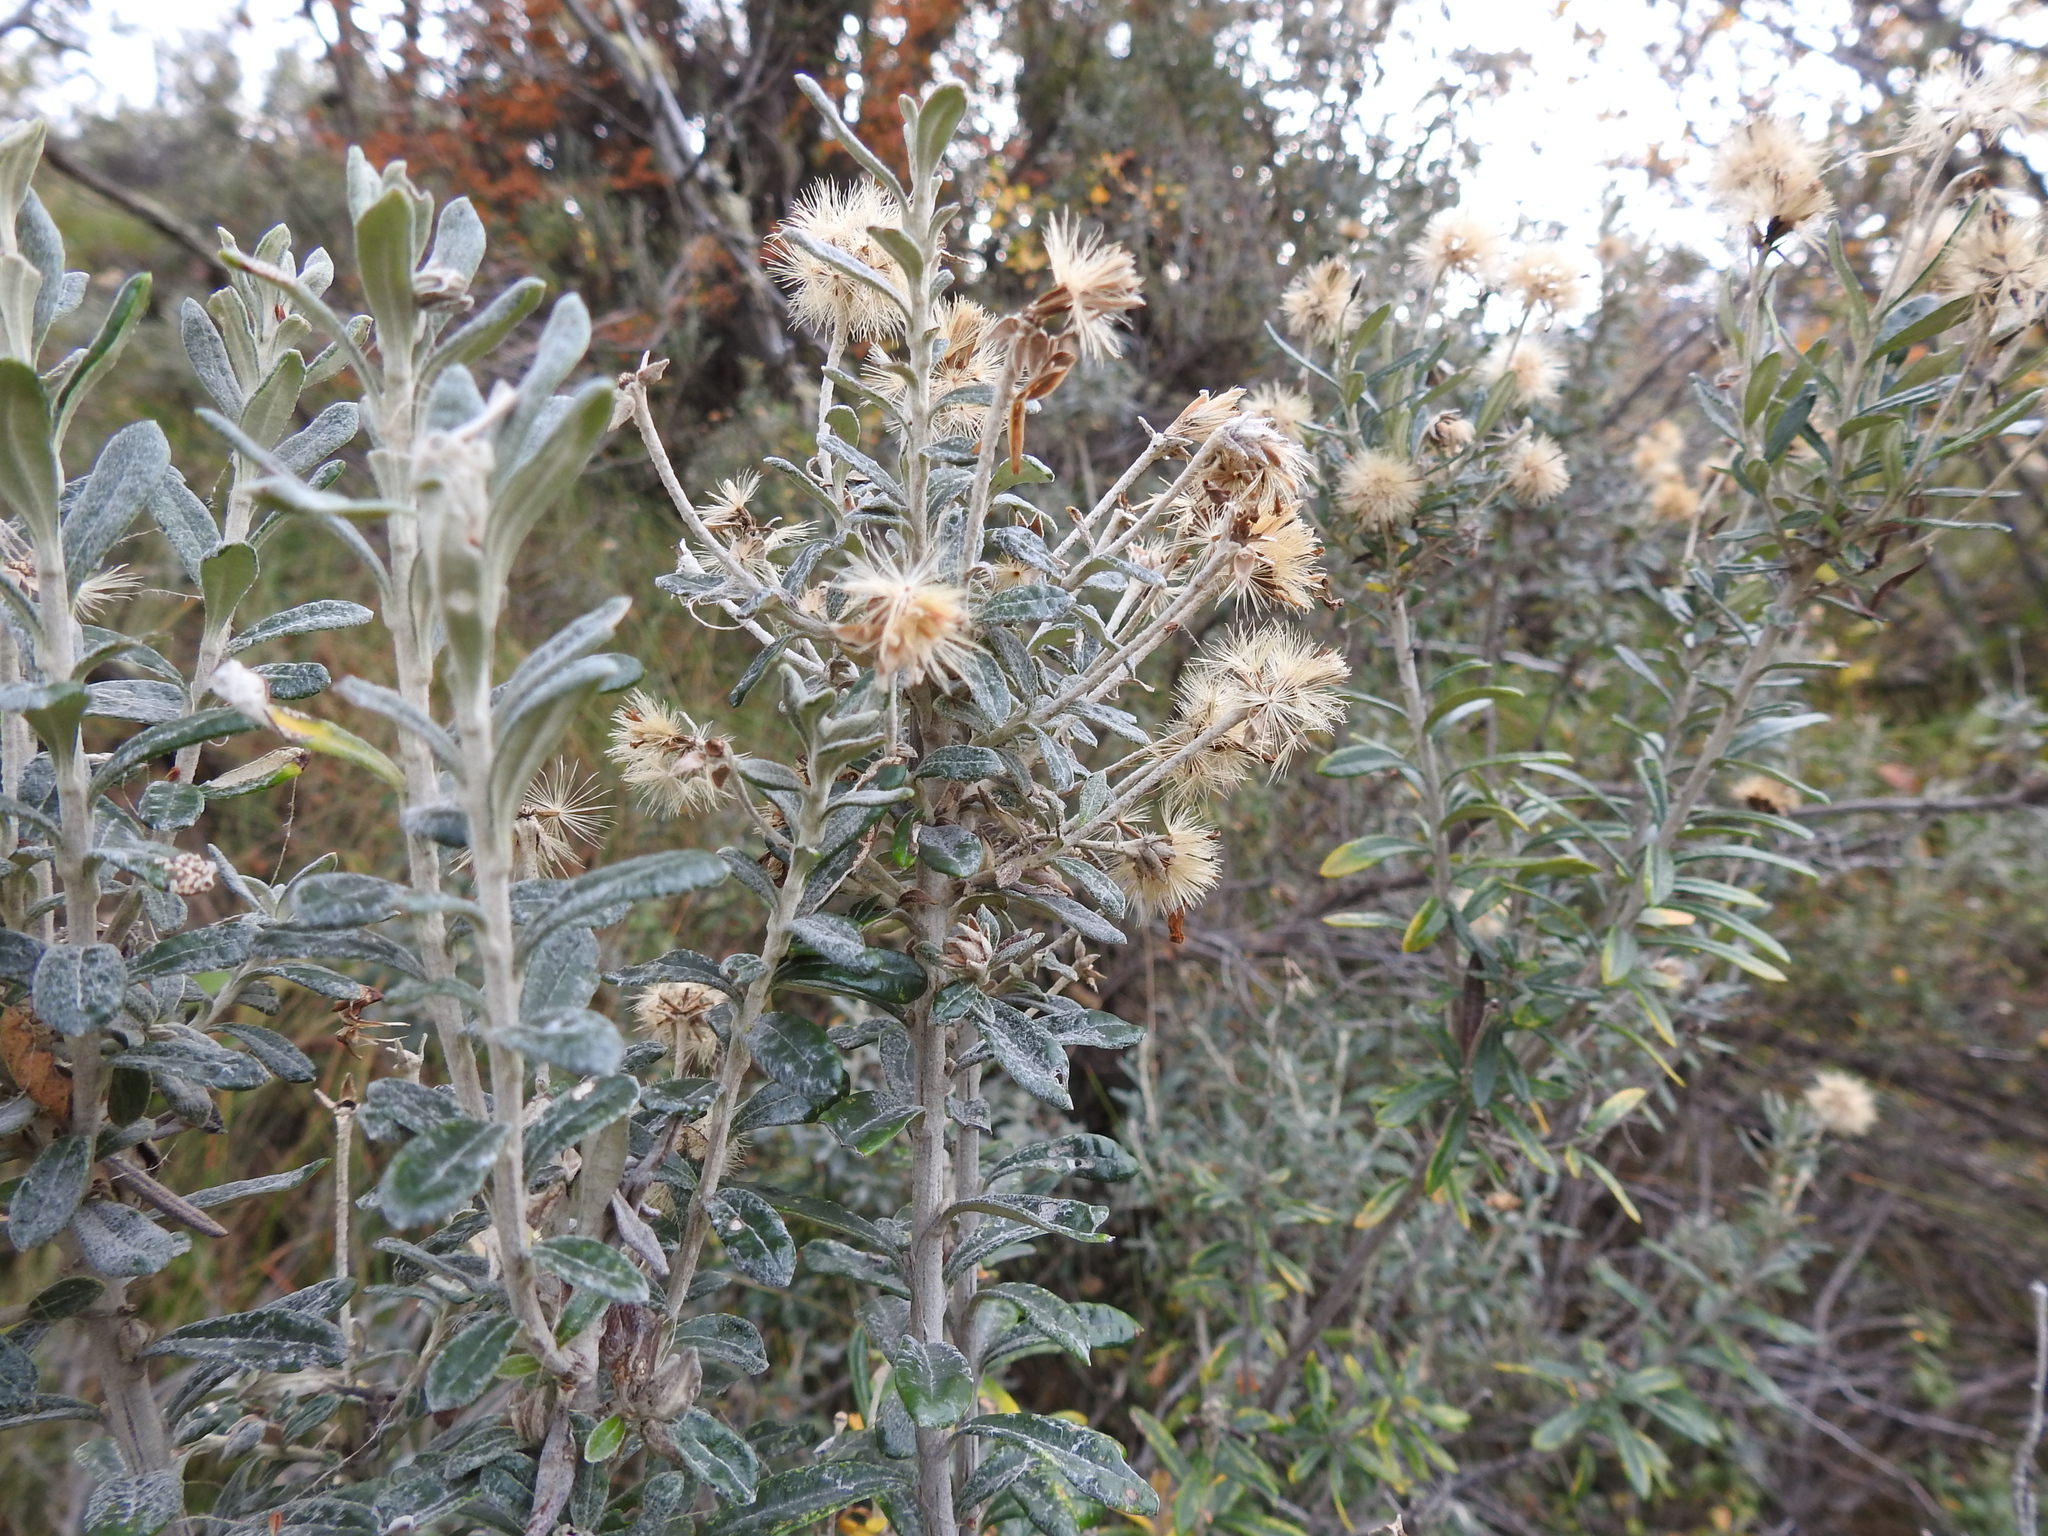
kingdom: Plantae
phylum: Tracheophyta
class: Magnoliopsida
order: Asterales
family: Asteraceae
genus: Chiliotrichum
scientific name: Chiliotrichum diffusum
